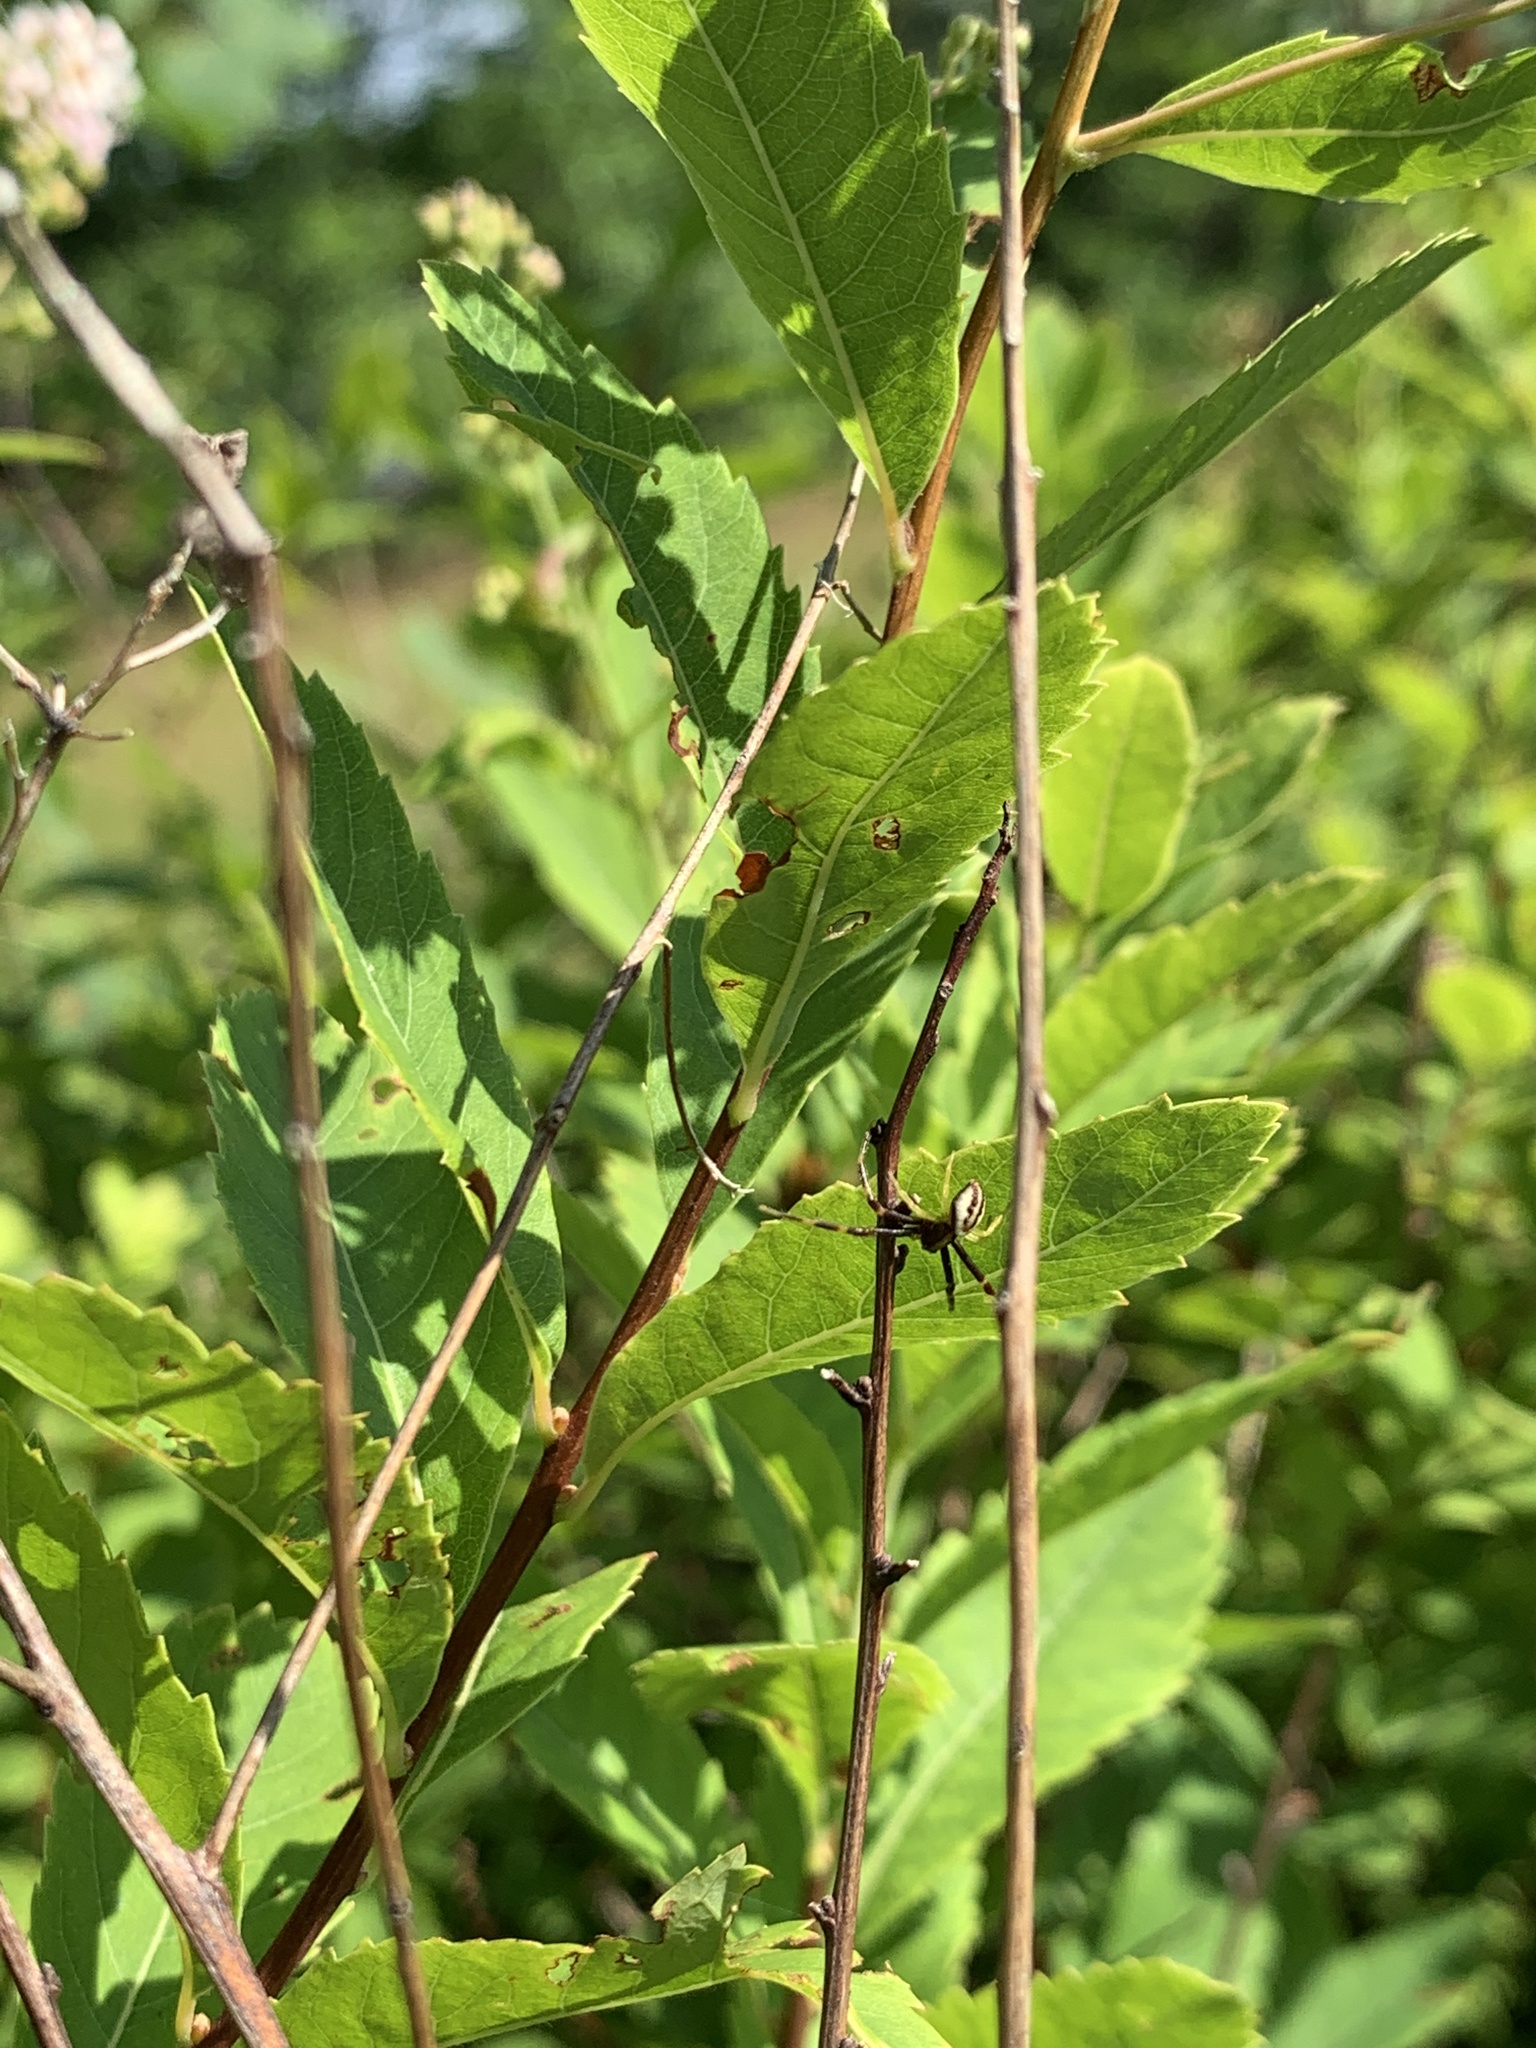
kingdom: Plantae
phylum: Tracheophyta
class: Magnoliopsida
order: Rosales
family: Rosaceae
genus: Spiraea
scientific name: Spiraea alba
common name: Pale bridewort
